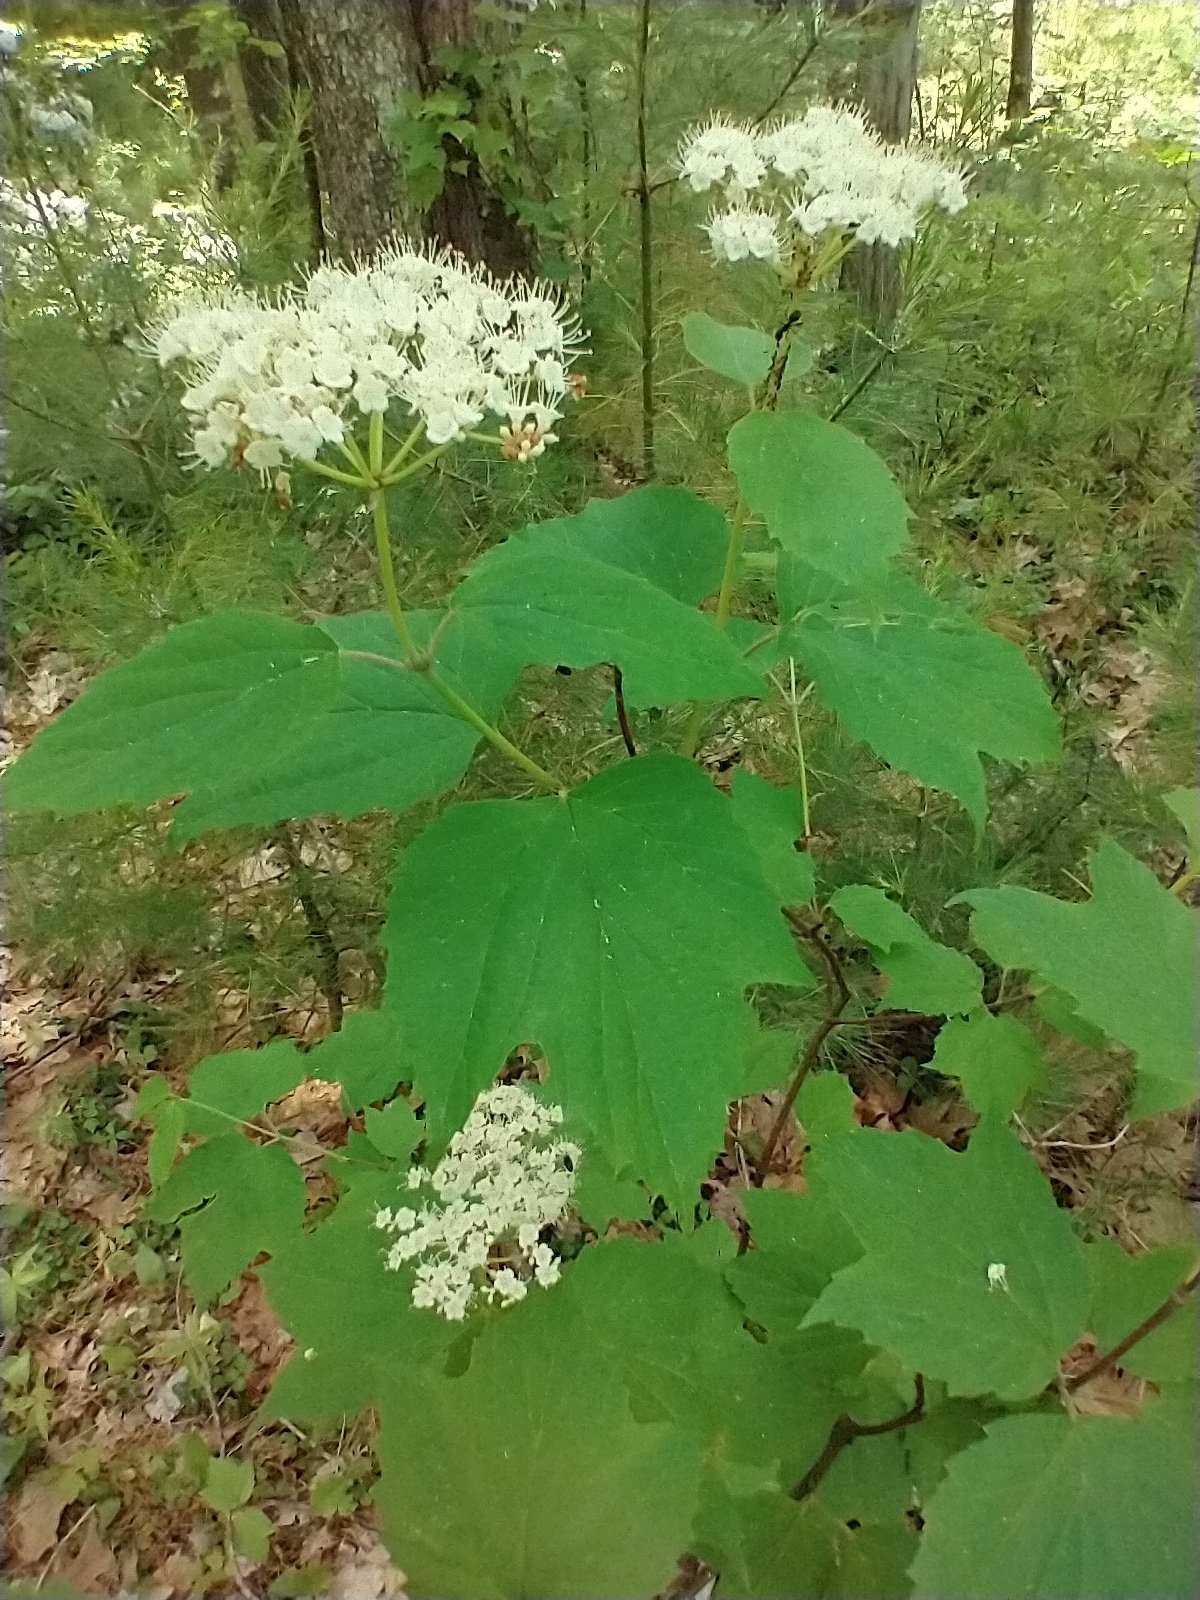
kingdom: Plantae
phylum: Tracheophyta
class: Magnoliopsida
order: Dipsacales
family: Viburnaceae
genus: Viburnum
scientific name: Viburnum acerifolium
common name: Dockmackie
